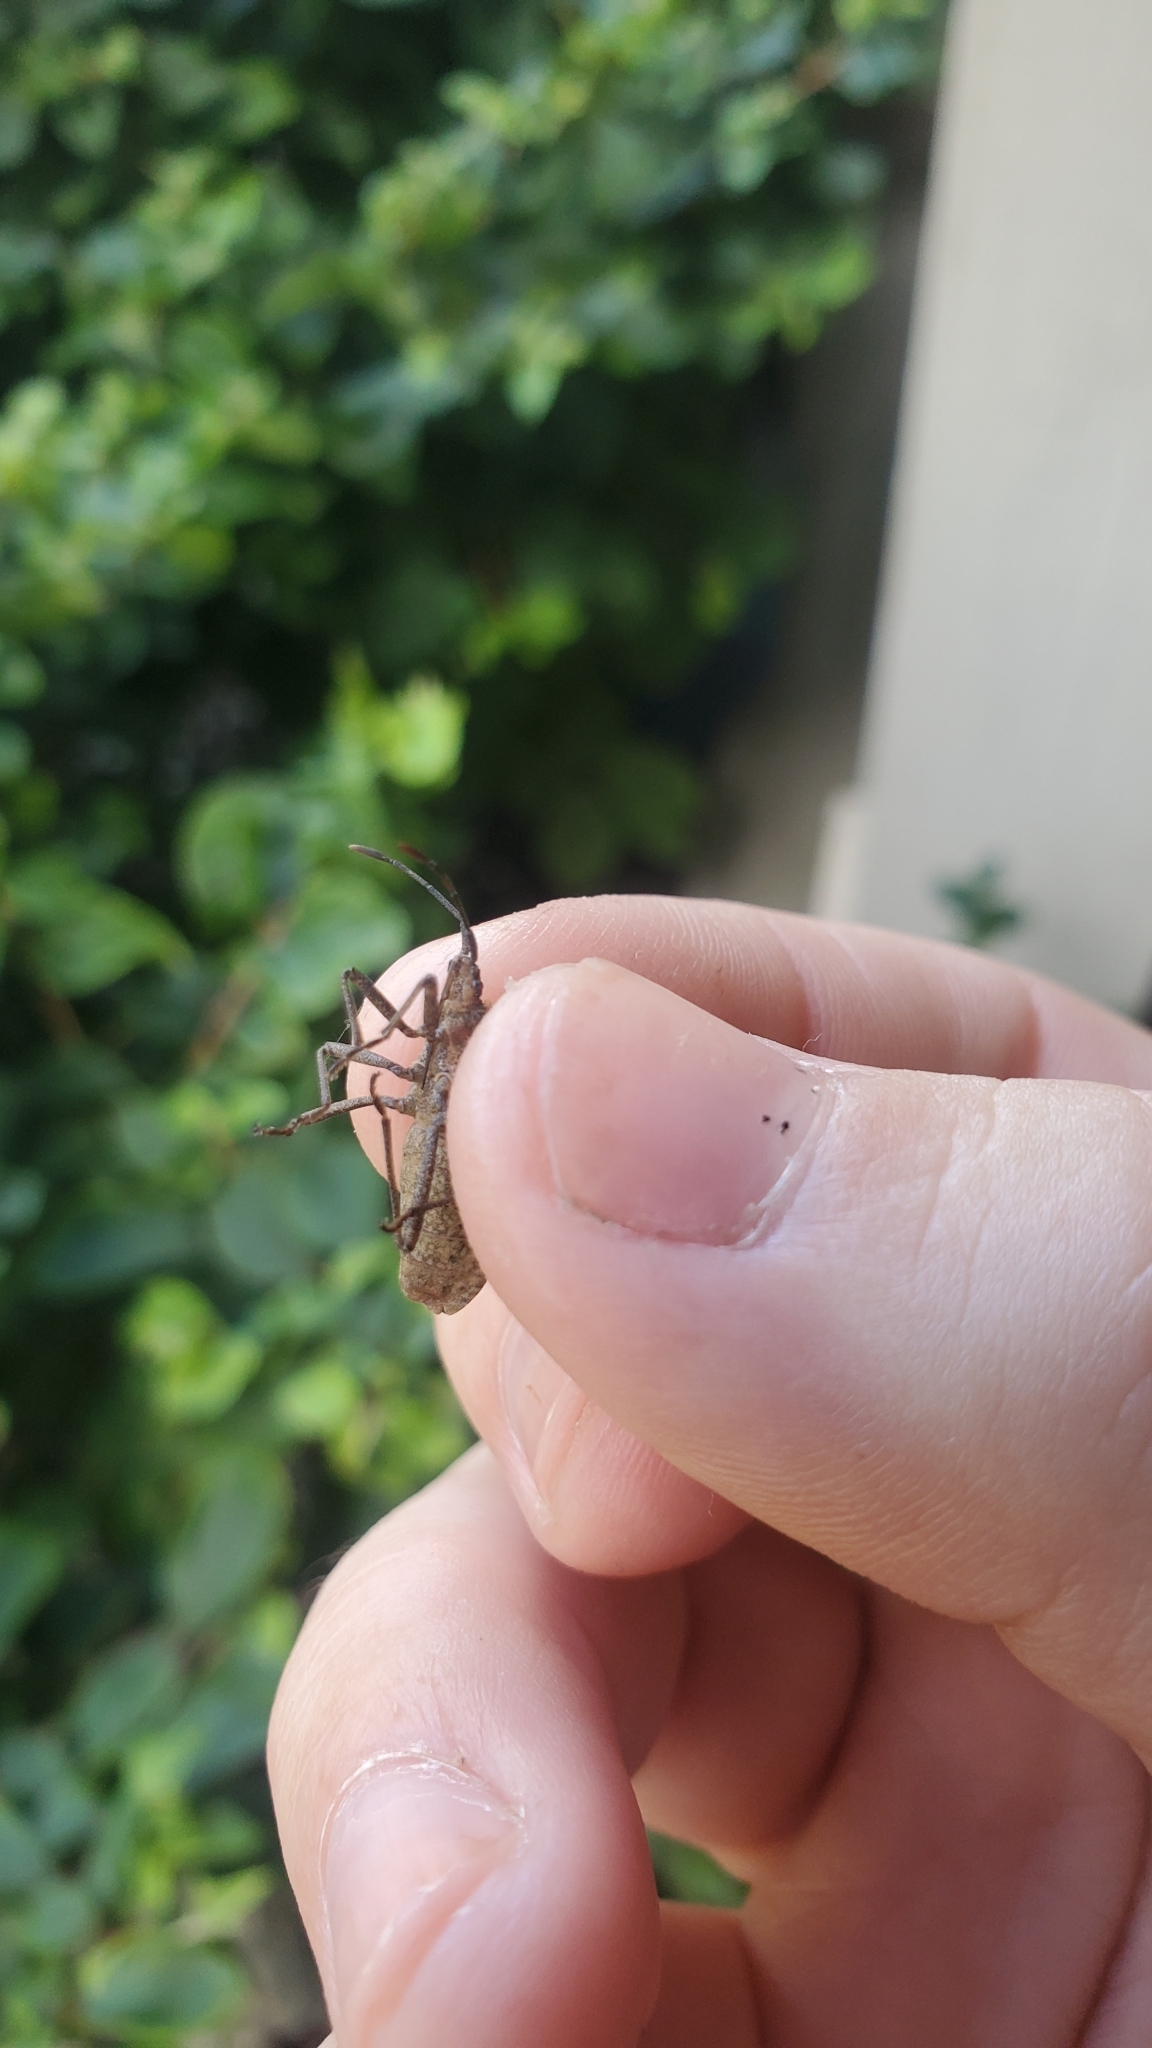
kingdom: Animalia
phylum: Arthropoda
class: Insecta
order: Hemiptera
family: Coreidae
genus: Anasa
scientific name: Anasa tristis
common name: Squash bug
